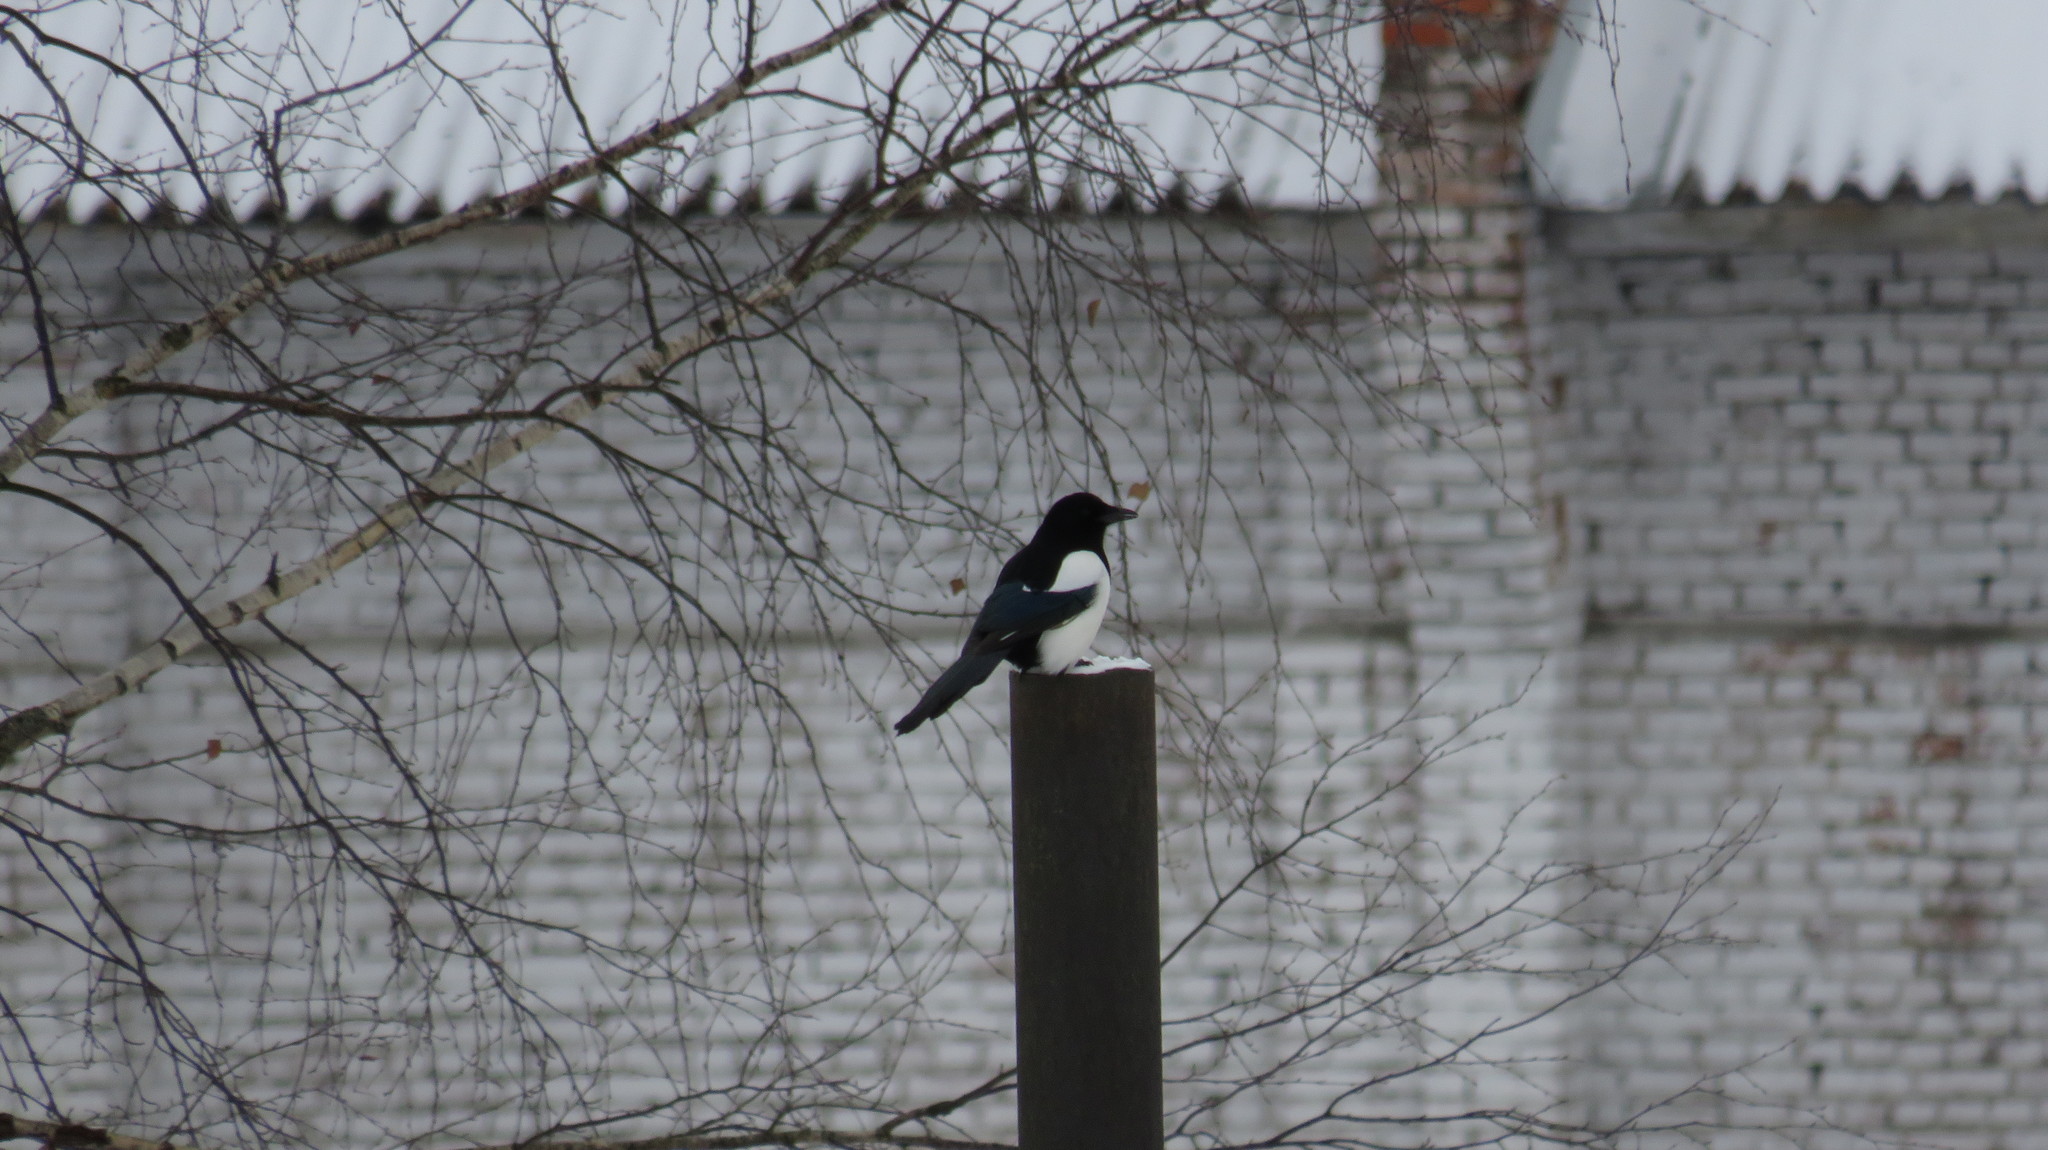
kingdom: Animalia
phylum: Chordata
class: Aves
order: Passeriformes
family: Corvidae
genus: Pica
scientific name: Pica pica
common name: Eurasian magpie
